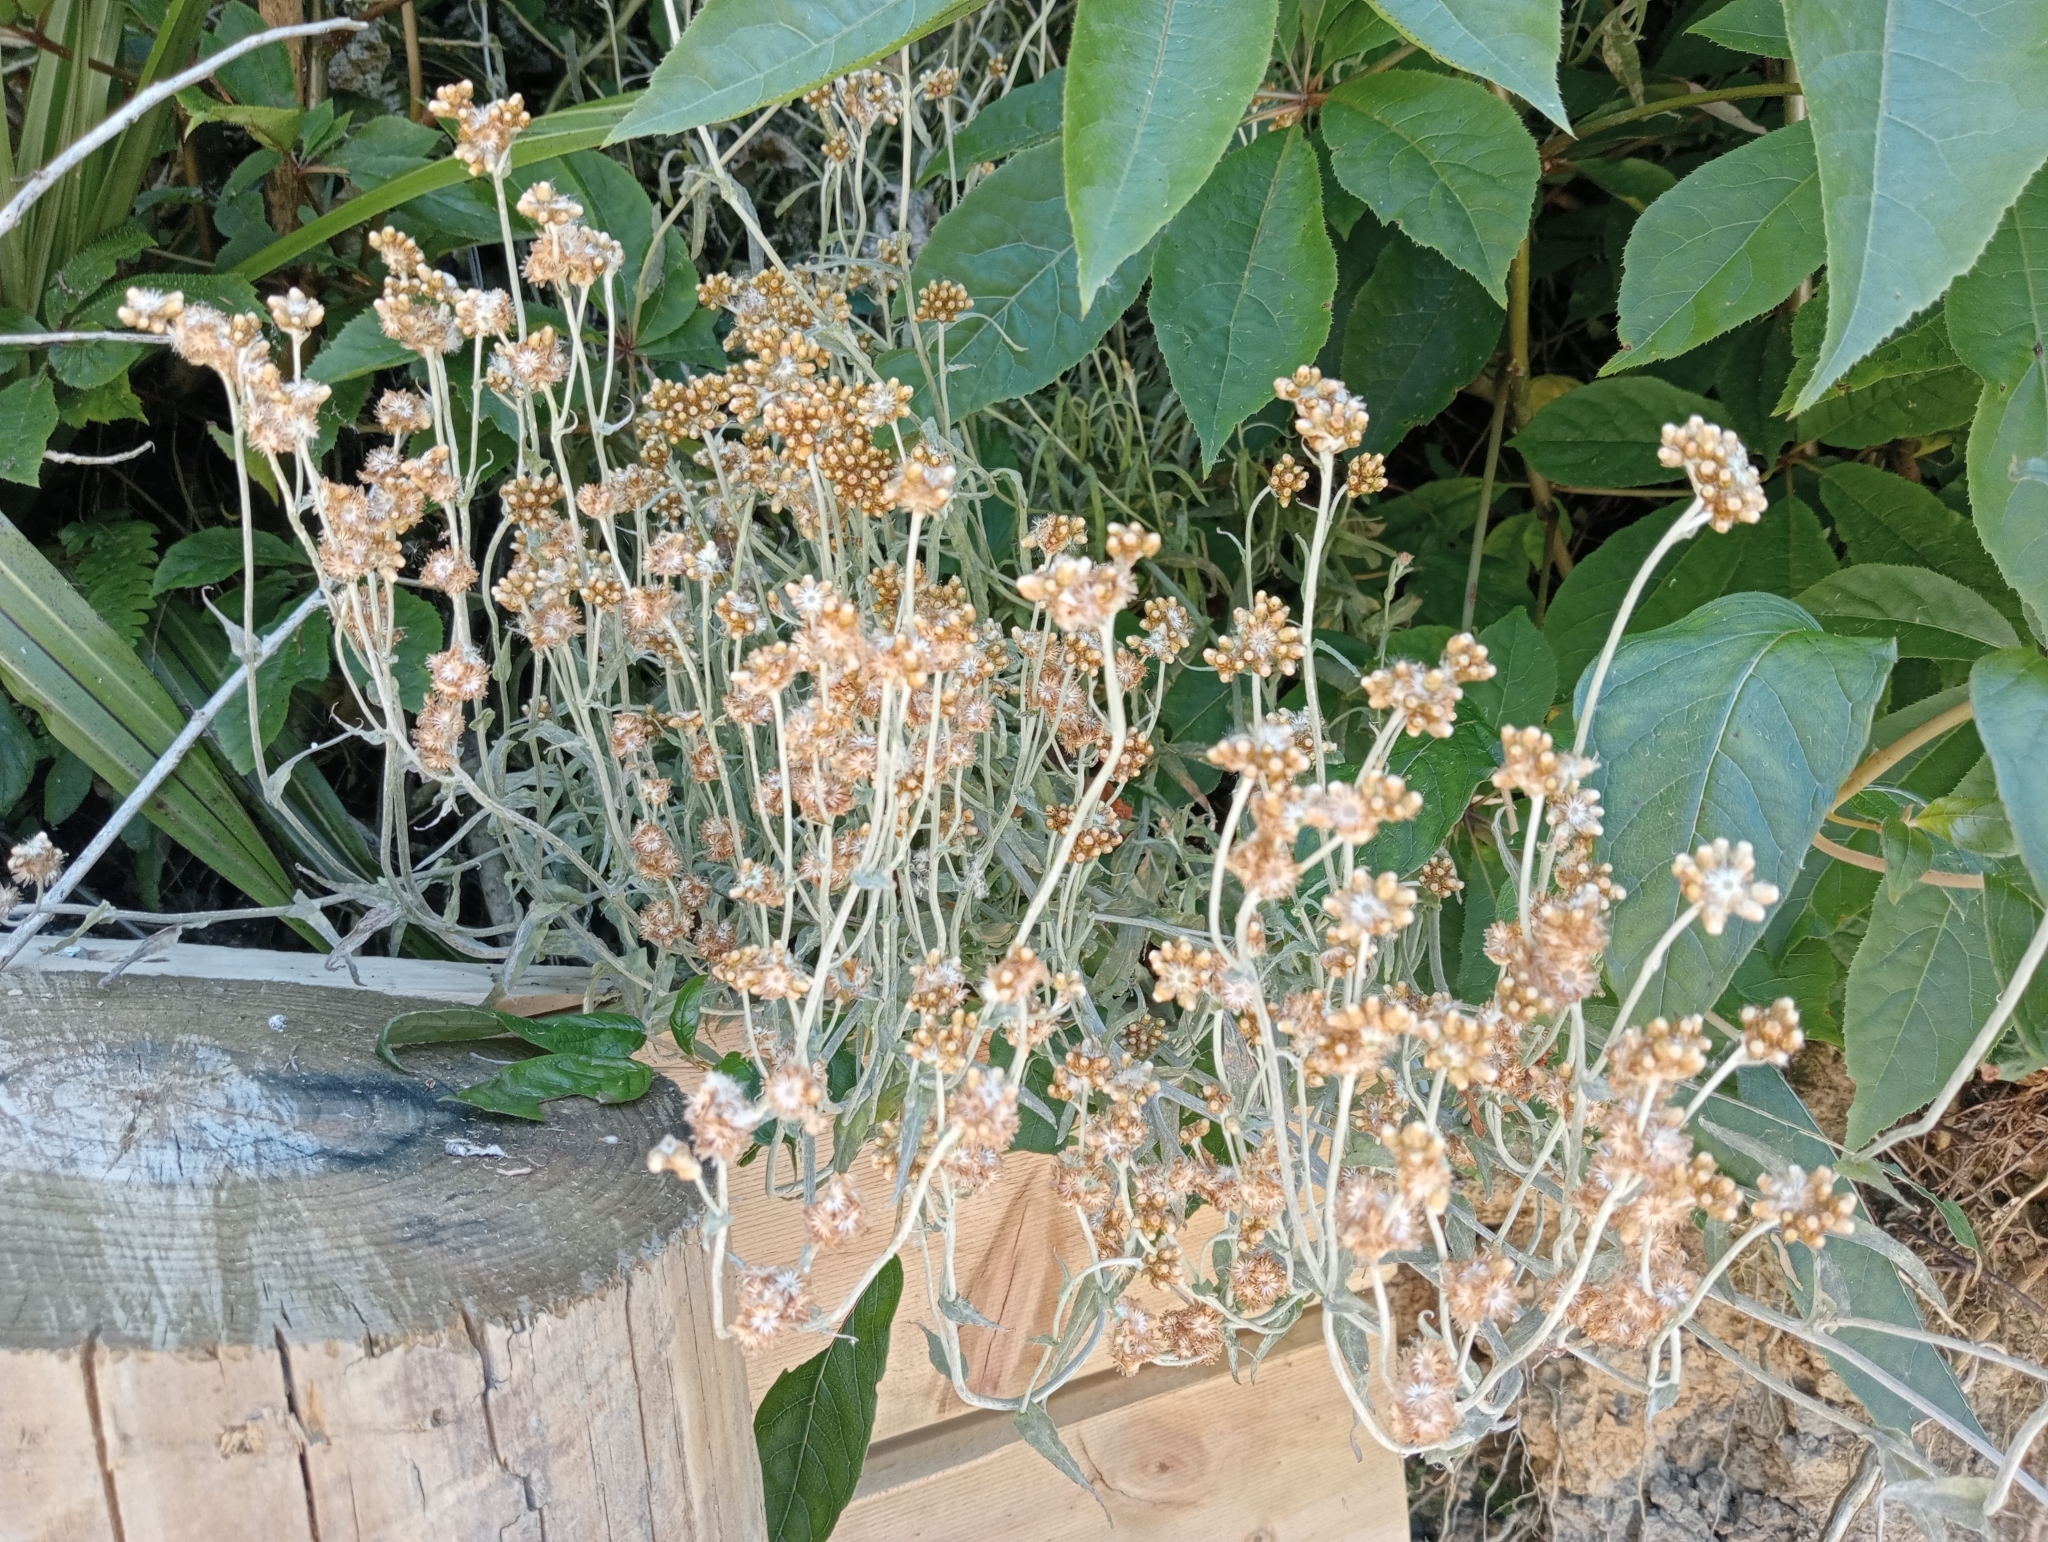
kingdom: Plantae
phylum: Tracheophyta
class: Magnoliopsida
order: Asterales
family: Asteraceae
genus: Pseudognaphalium
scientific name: Pseudognaphalium
